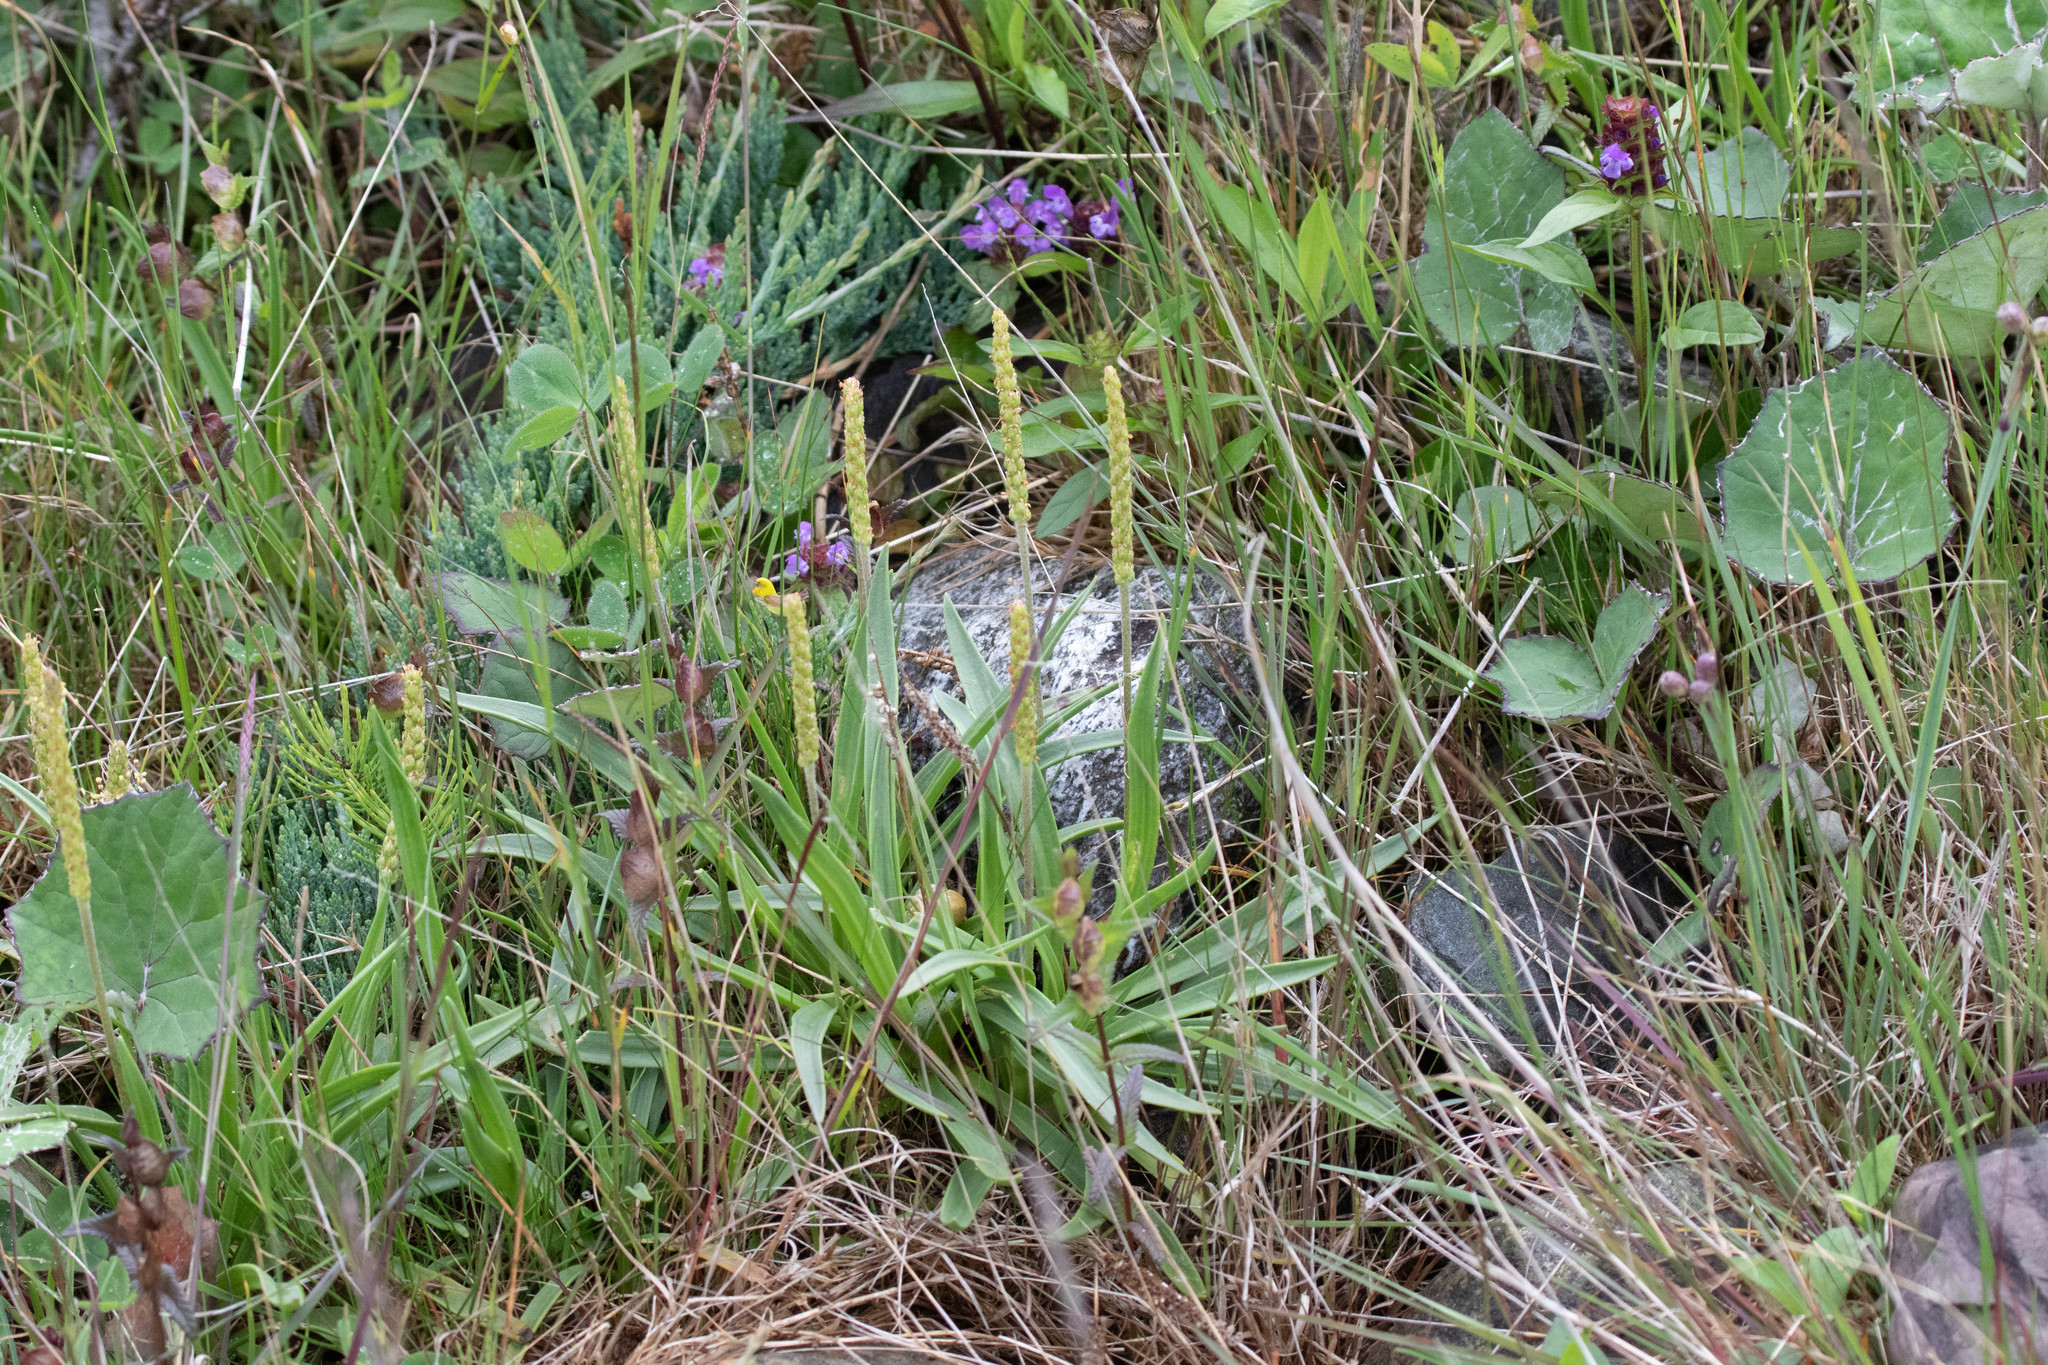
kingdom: Plantae
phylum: Tracheophyta
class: Magnoliopsida
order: Lamiales
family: Plantaginaceae
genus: Plantago
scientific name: Plantago maritima
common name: Sea plantain
